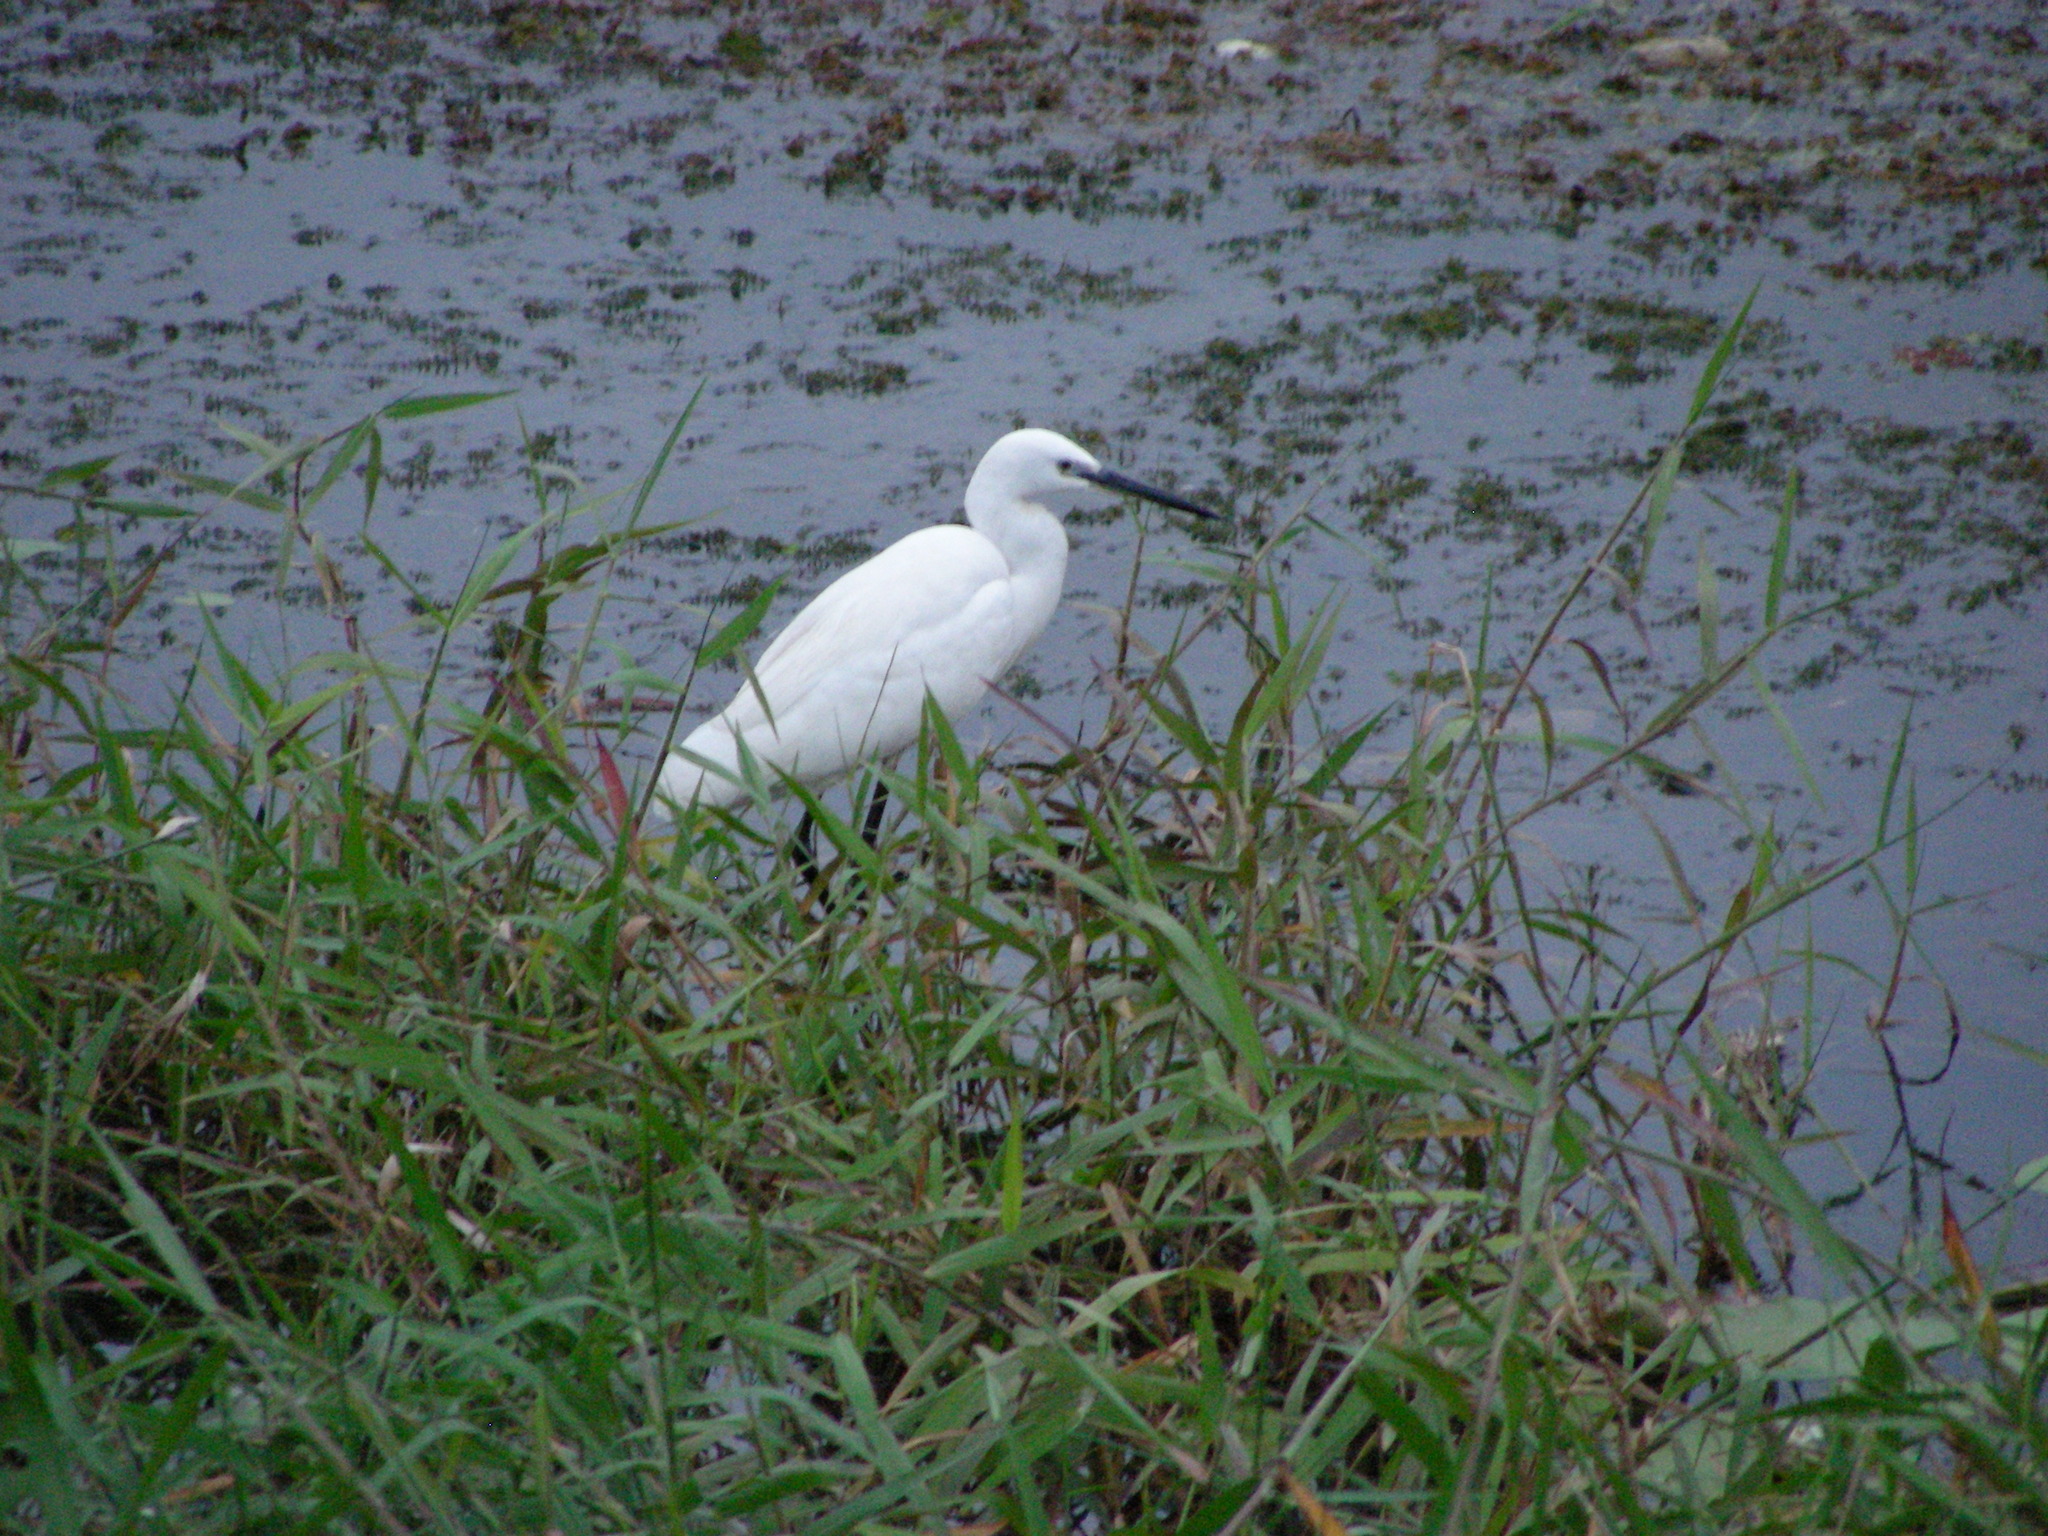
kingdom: Animalia
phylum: Chordata
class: Aves
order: Pelecaniformes
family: Ardeidae
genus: Egretta
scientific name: Egretta garzetta
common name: Little egret
